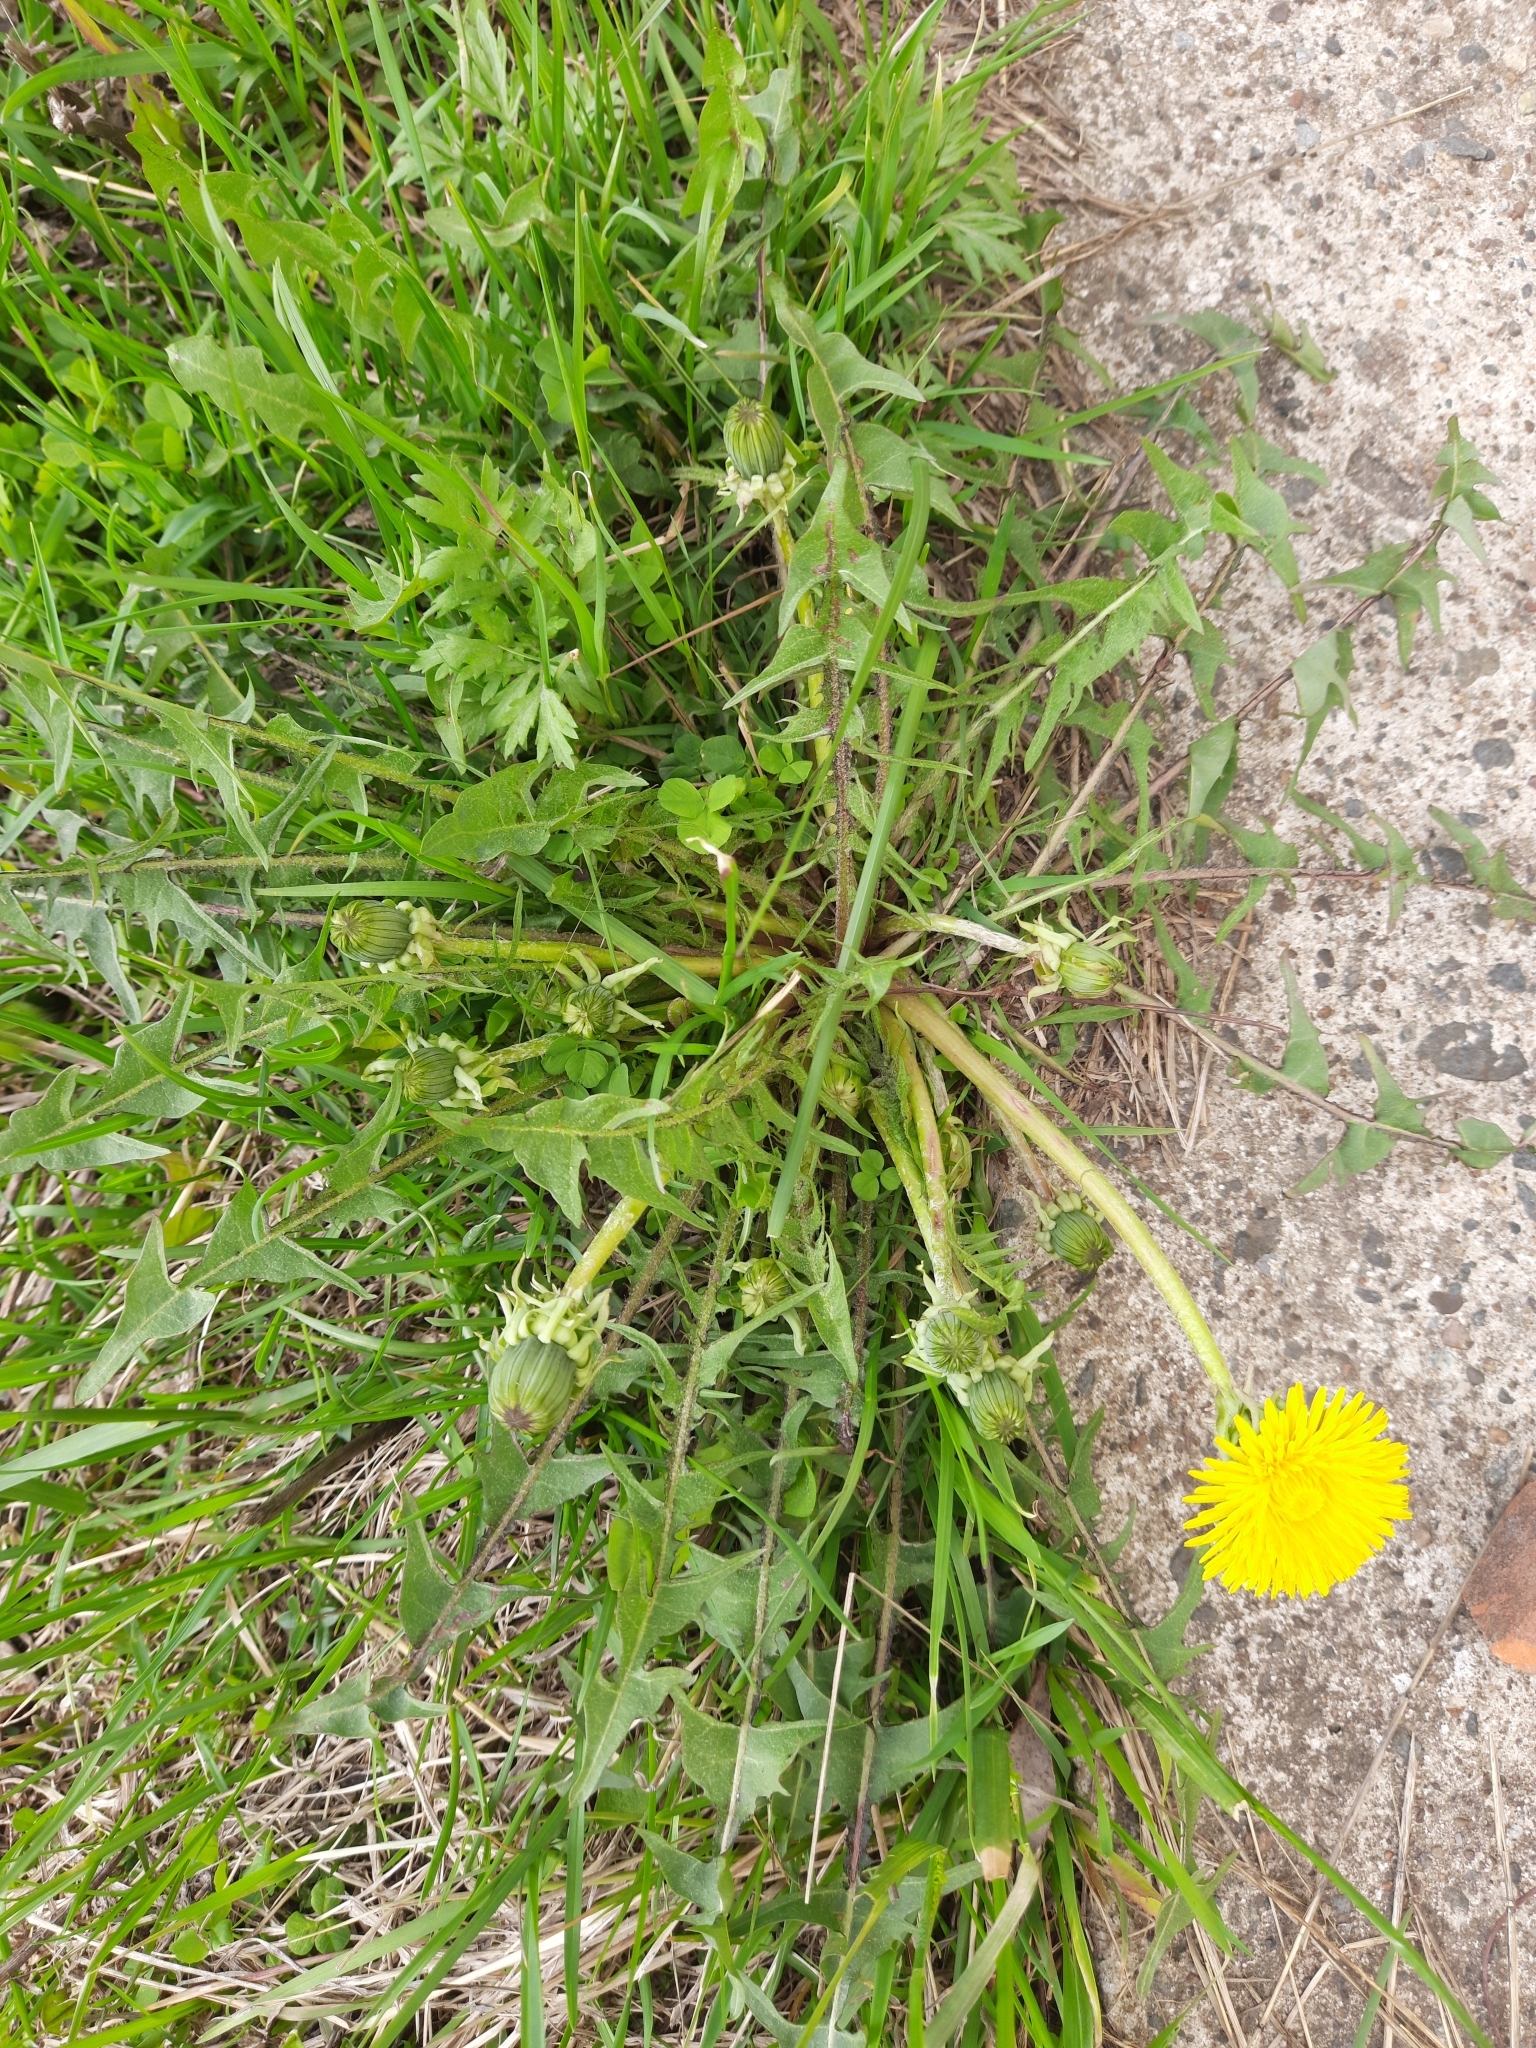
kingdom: Plantae
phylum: Tracheophyta
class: Magnoliopsida
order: Asterales
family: Asteraceae
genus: Taraxacum
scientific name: Taraxacum officinale
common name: Common dandelion
